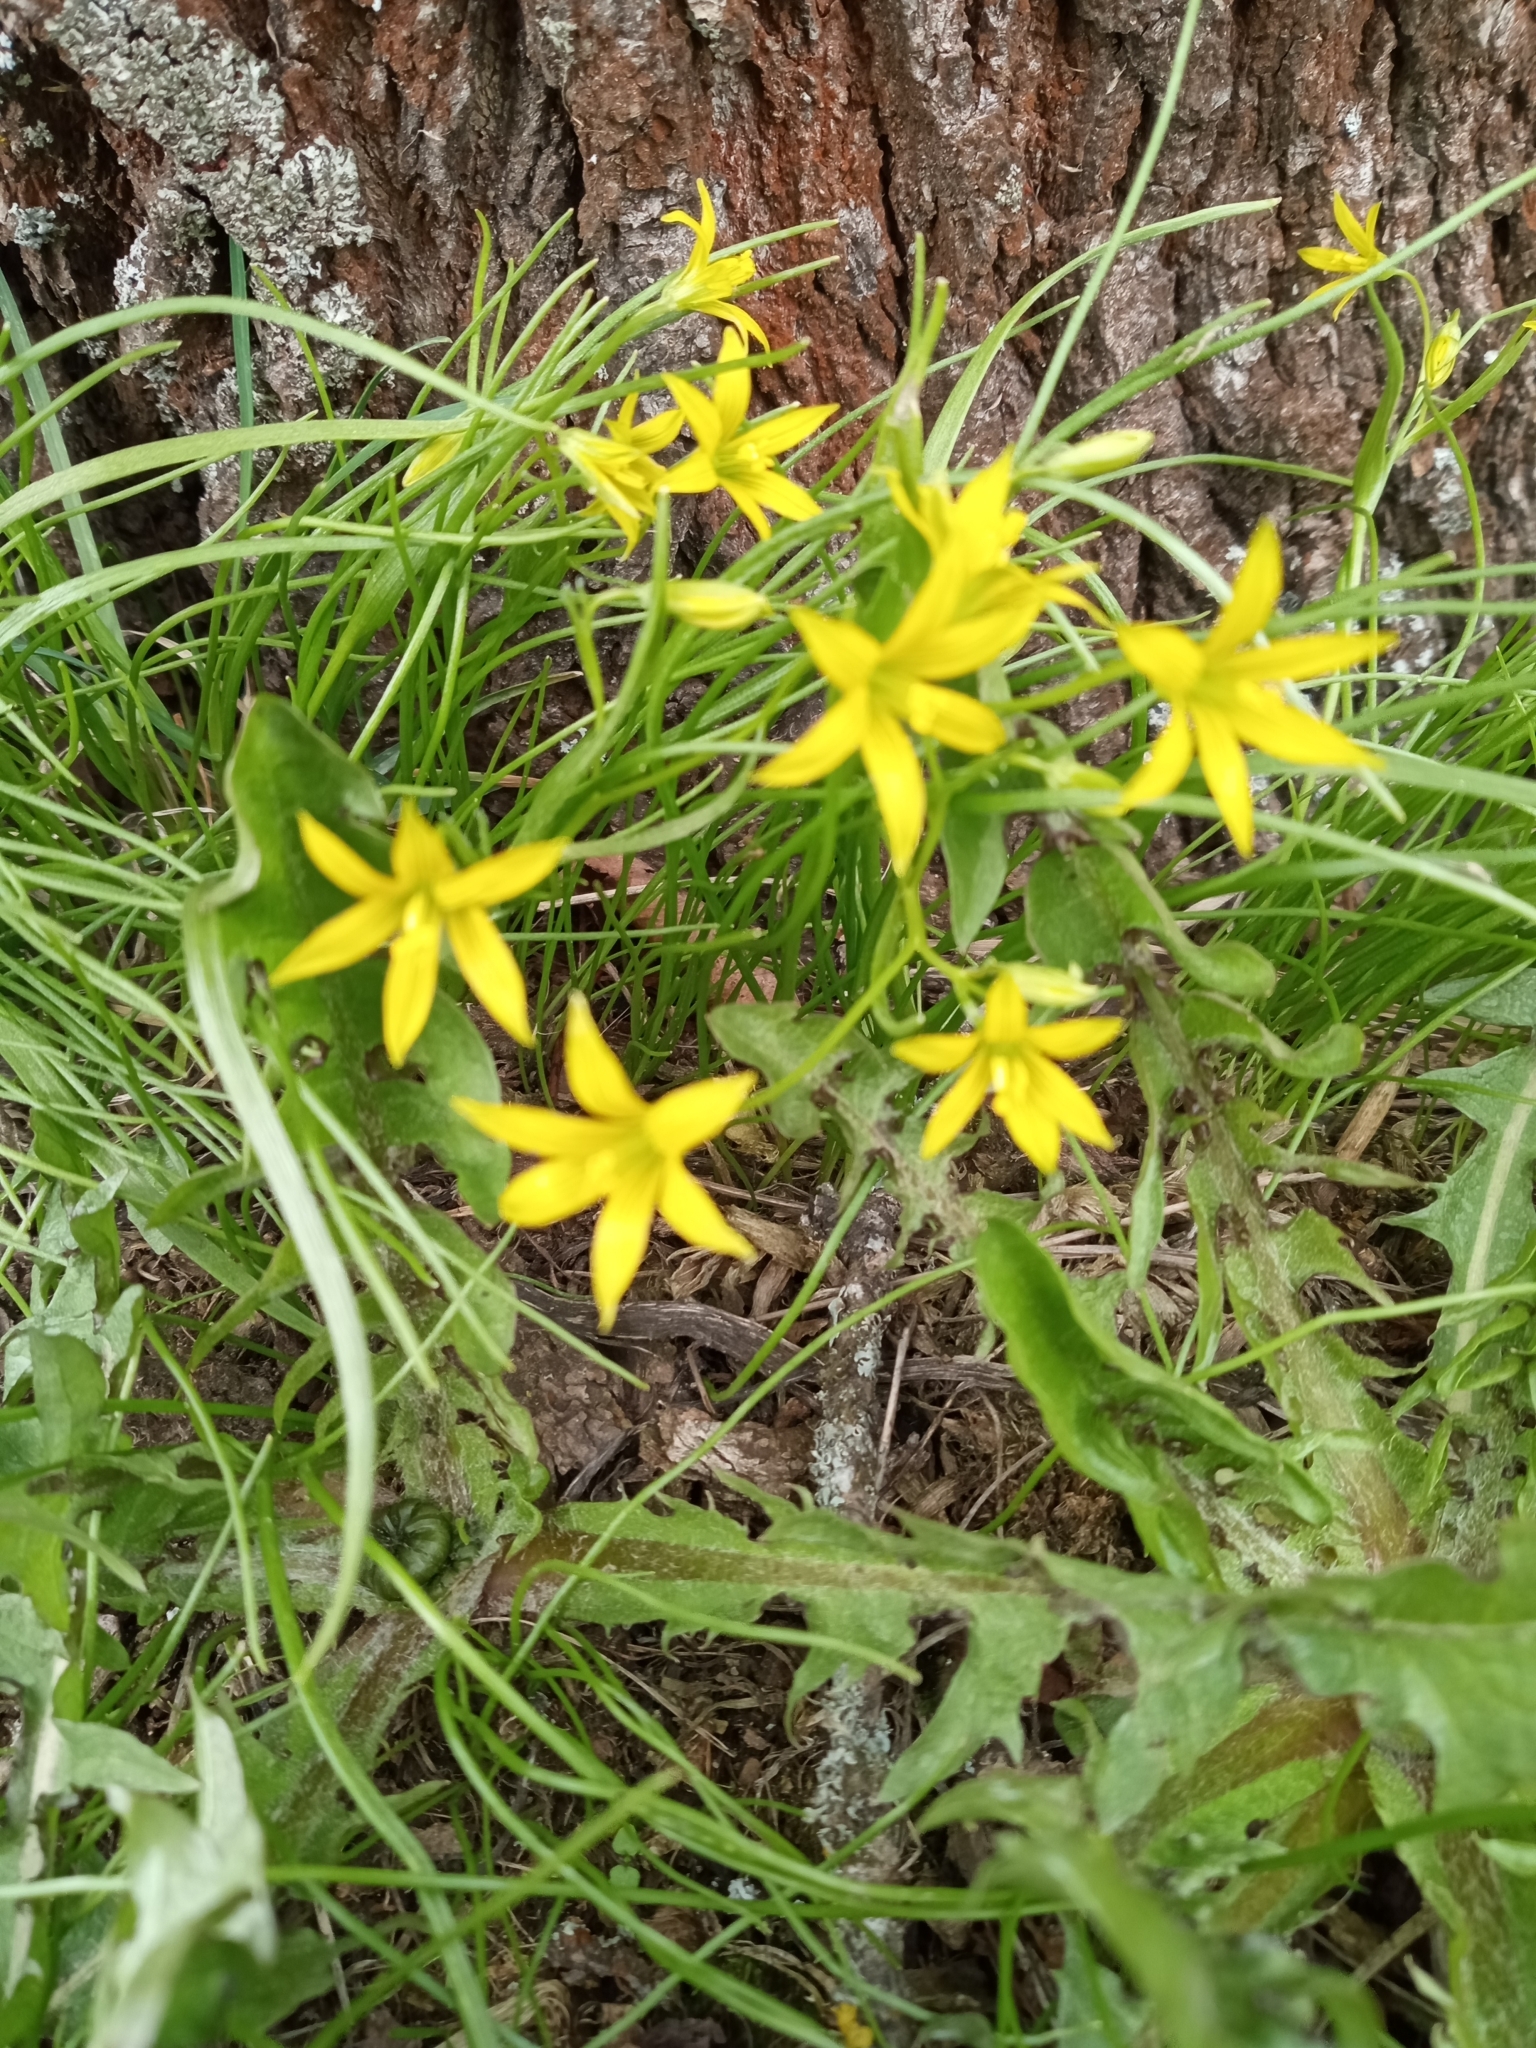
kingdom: Plantae
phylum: Tracheophyta
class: Liliopsida
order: Liliales
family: Liliaceae
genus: Gagea
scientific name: Gagea minima
